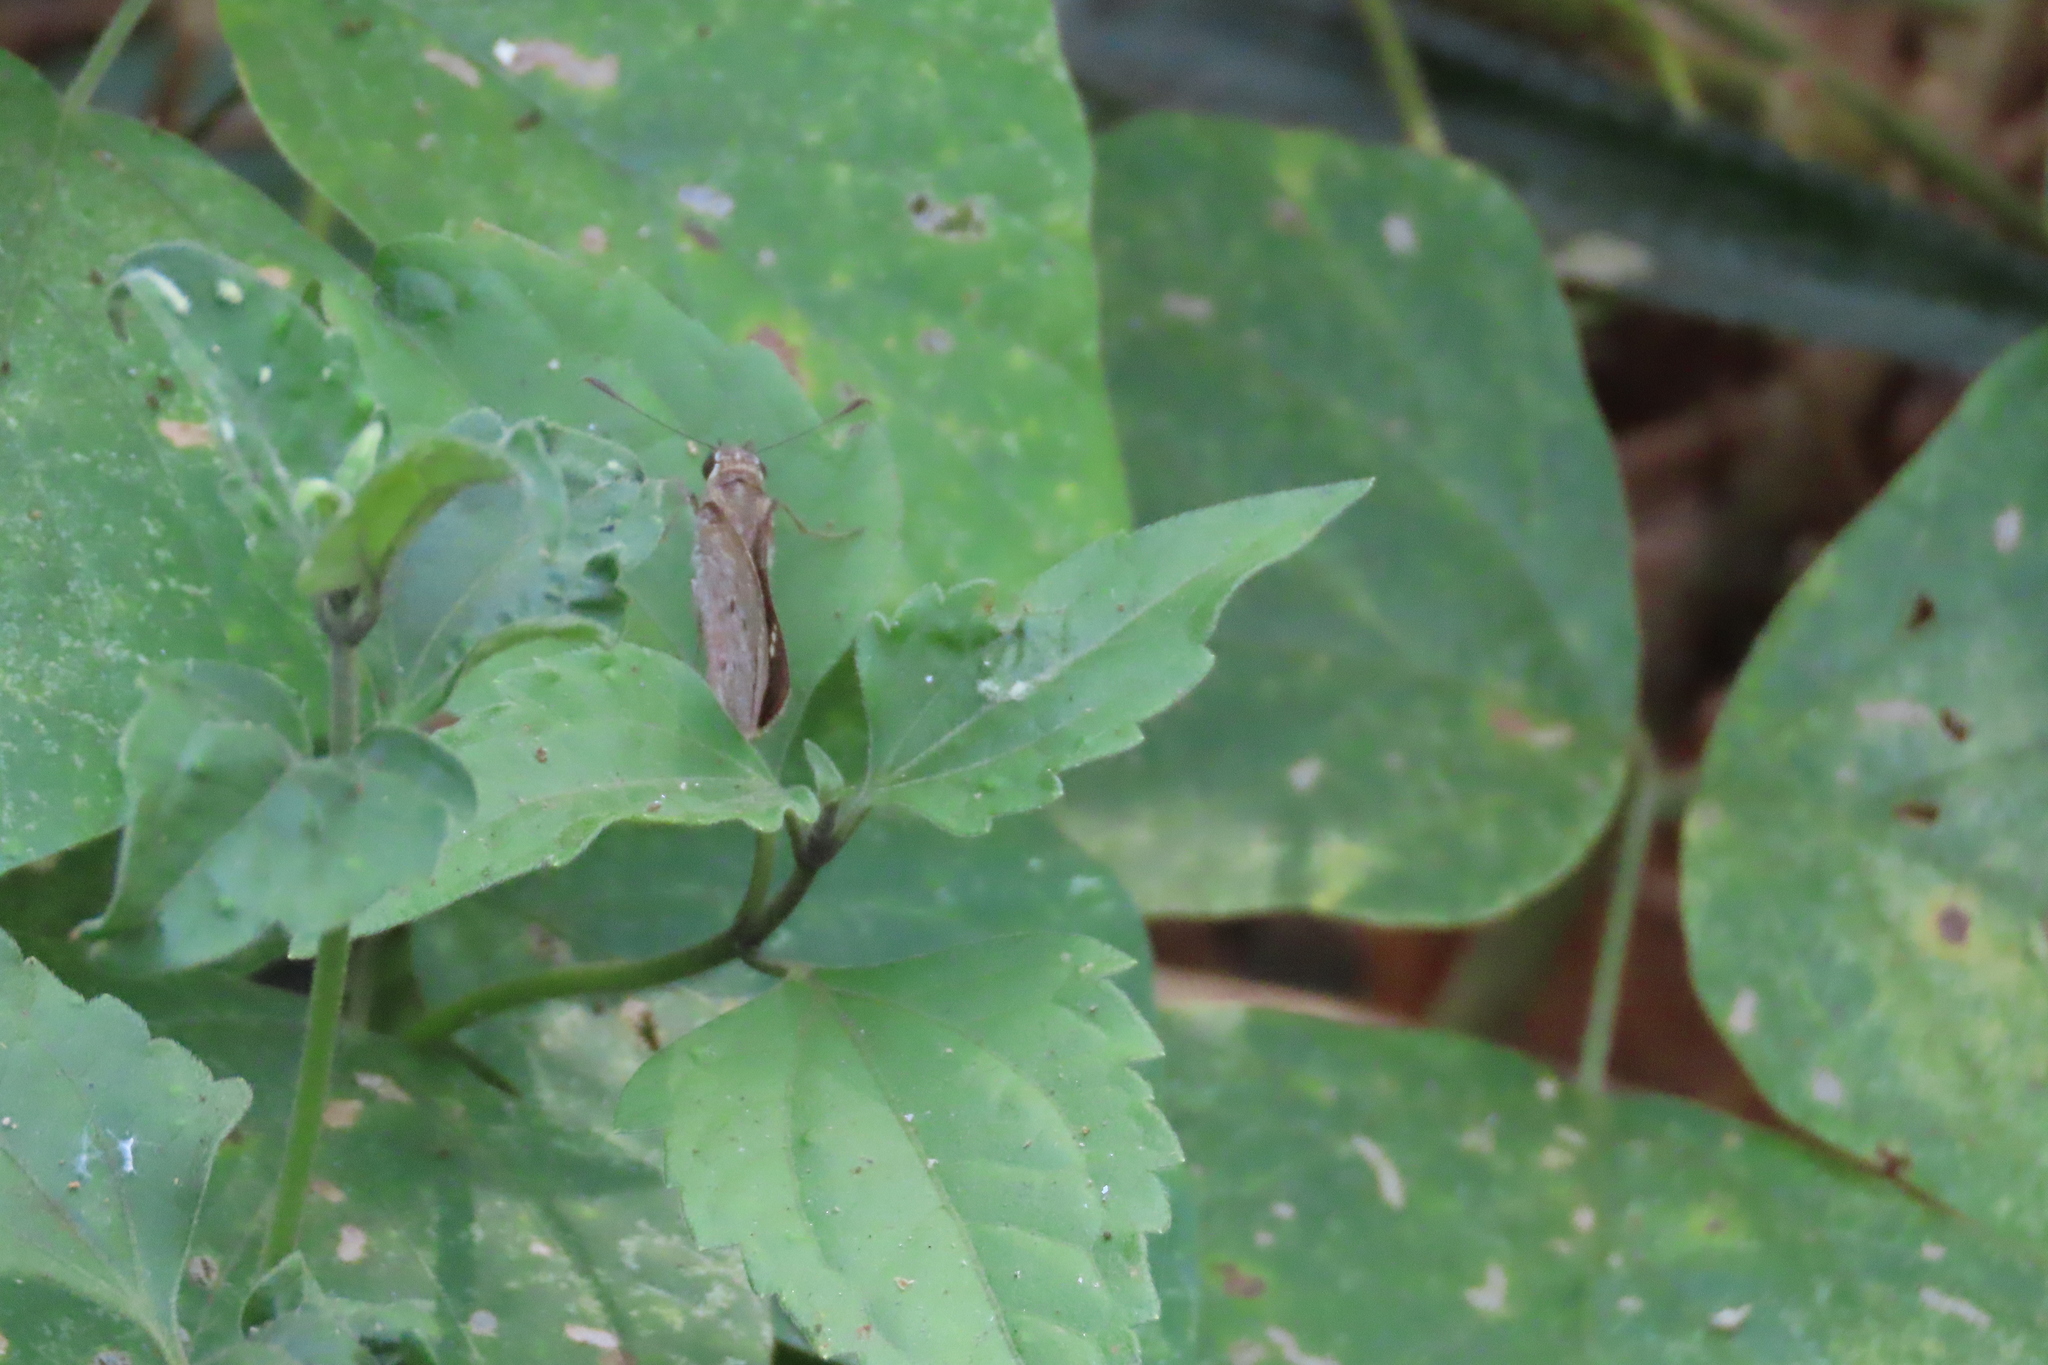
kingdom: Animalia
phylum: Arthropoda
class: Insecta
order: Lepidoptera
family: Hesperiidae
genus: Suastus
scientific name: Suastus gremius
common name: Indian palm bob
